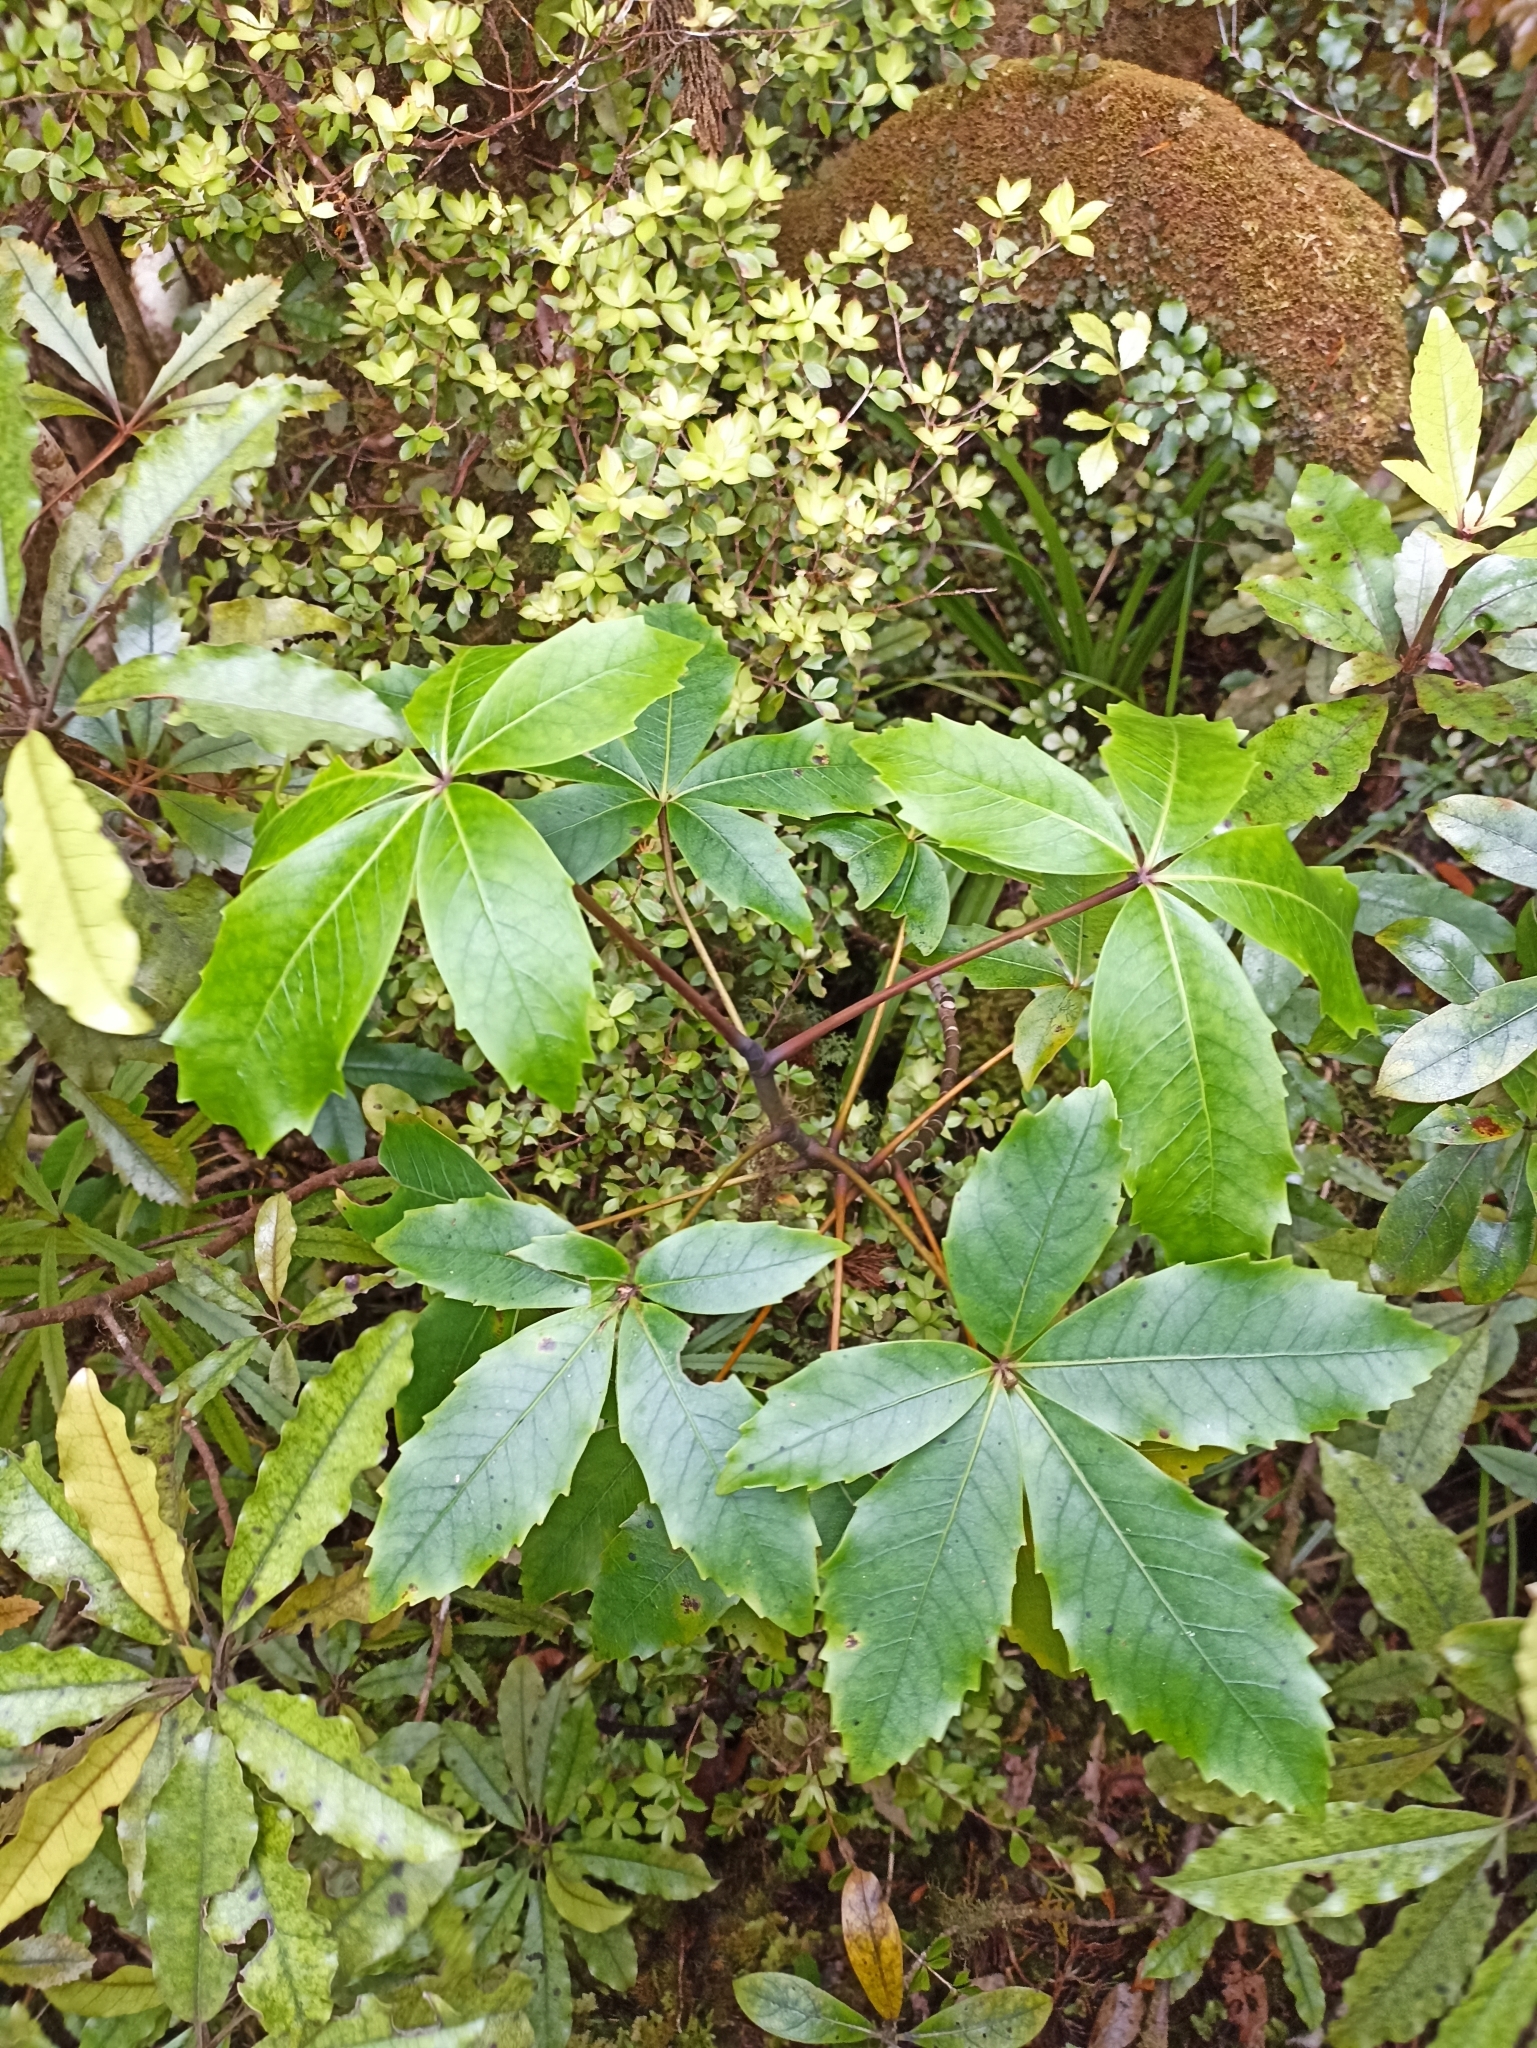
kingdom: Plantae
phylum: Tracheophyta
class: Magnoliopsida
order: Apiales
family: Araliaceae
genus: Neopanax
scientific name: Neopanax colensoi
